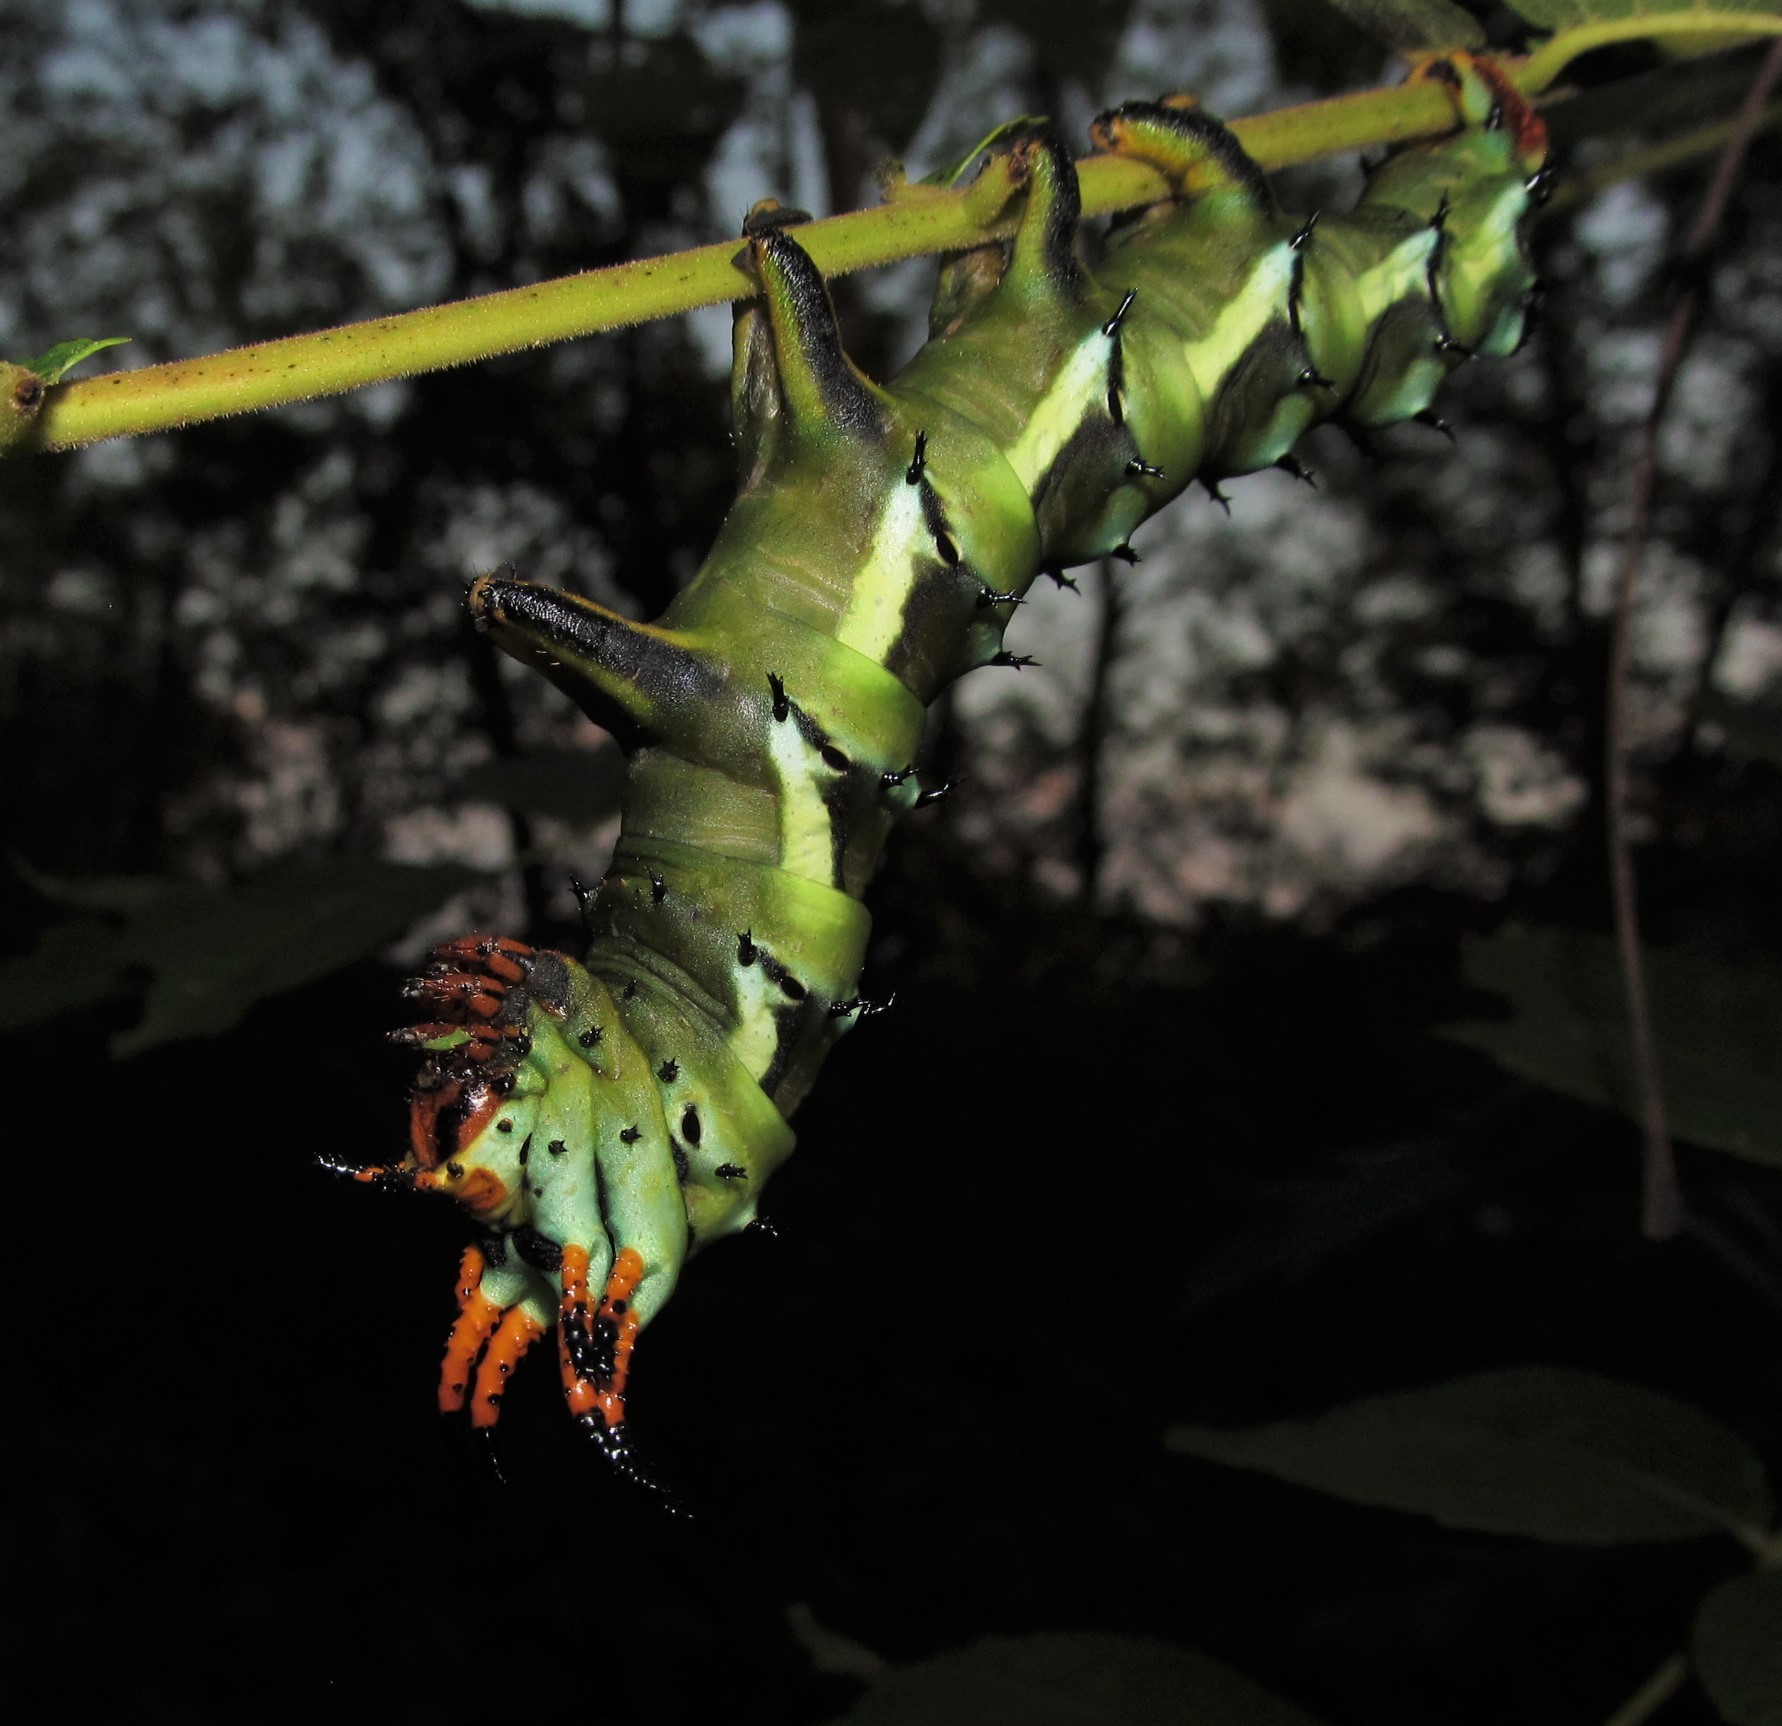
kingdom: Animalia
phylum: Arthropoda
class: Insecta
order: Lepidoptera
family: Saturniidae
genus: Citheronia
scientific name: Citheronia regalis
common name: Hickory horned devil
